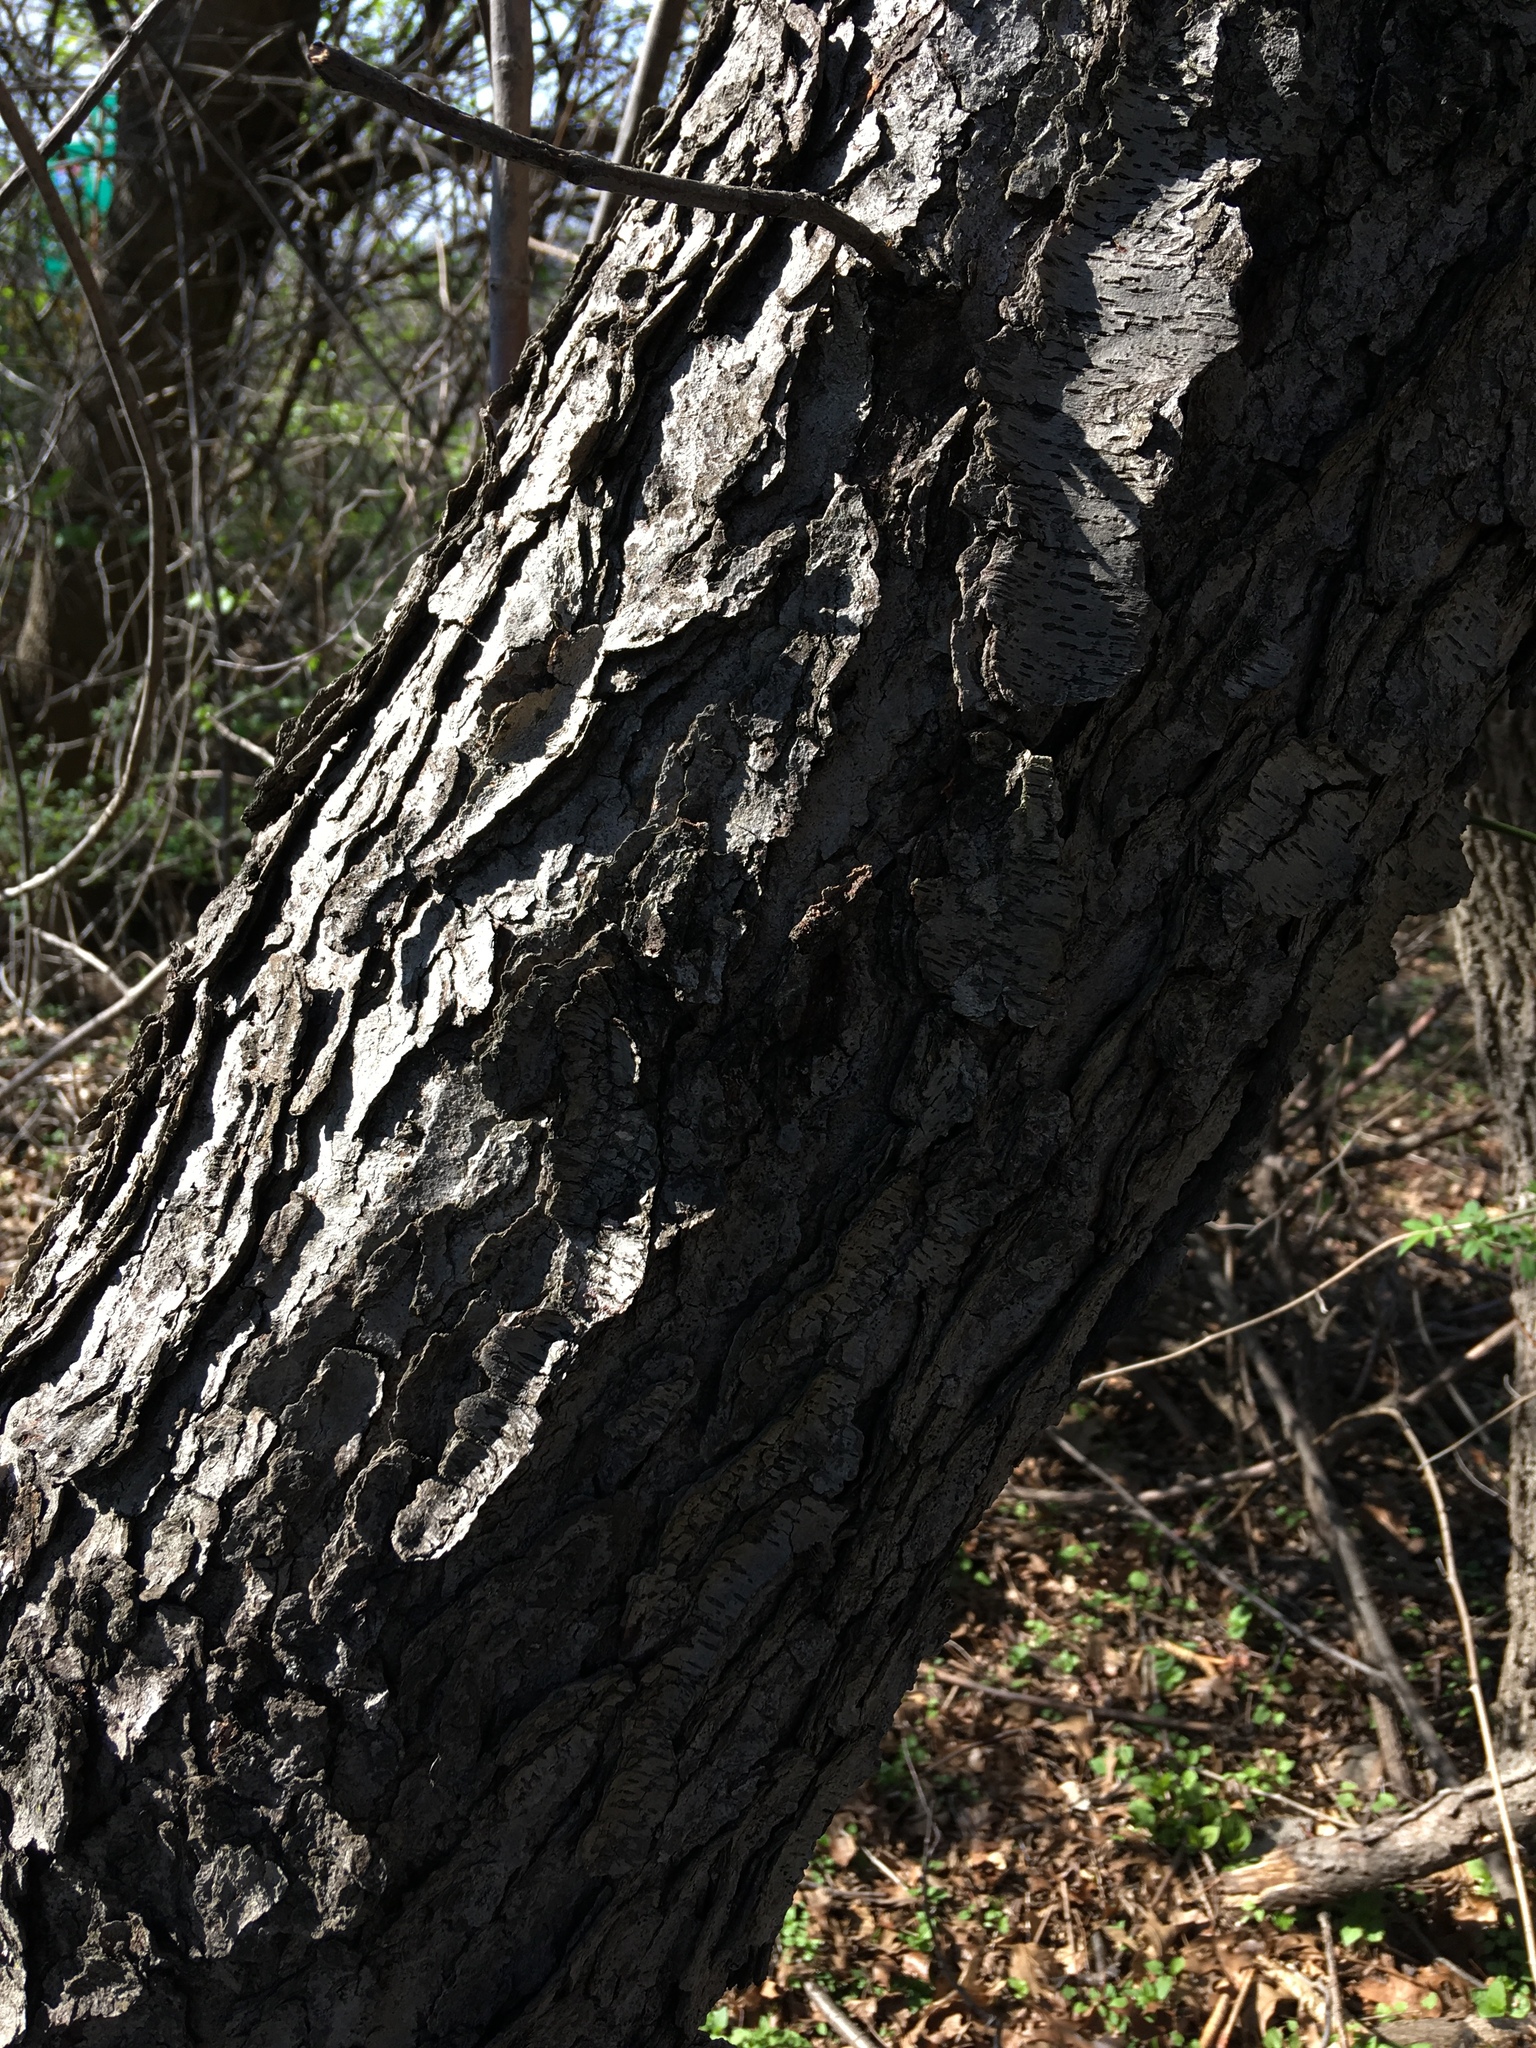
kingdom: Plantae
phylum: Tracheophyta
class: Magnoliopsida
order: Rosales
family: Rosaceae
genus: Prunus
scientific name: Prunus serotina
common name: Black cherry
